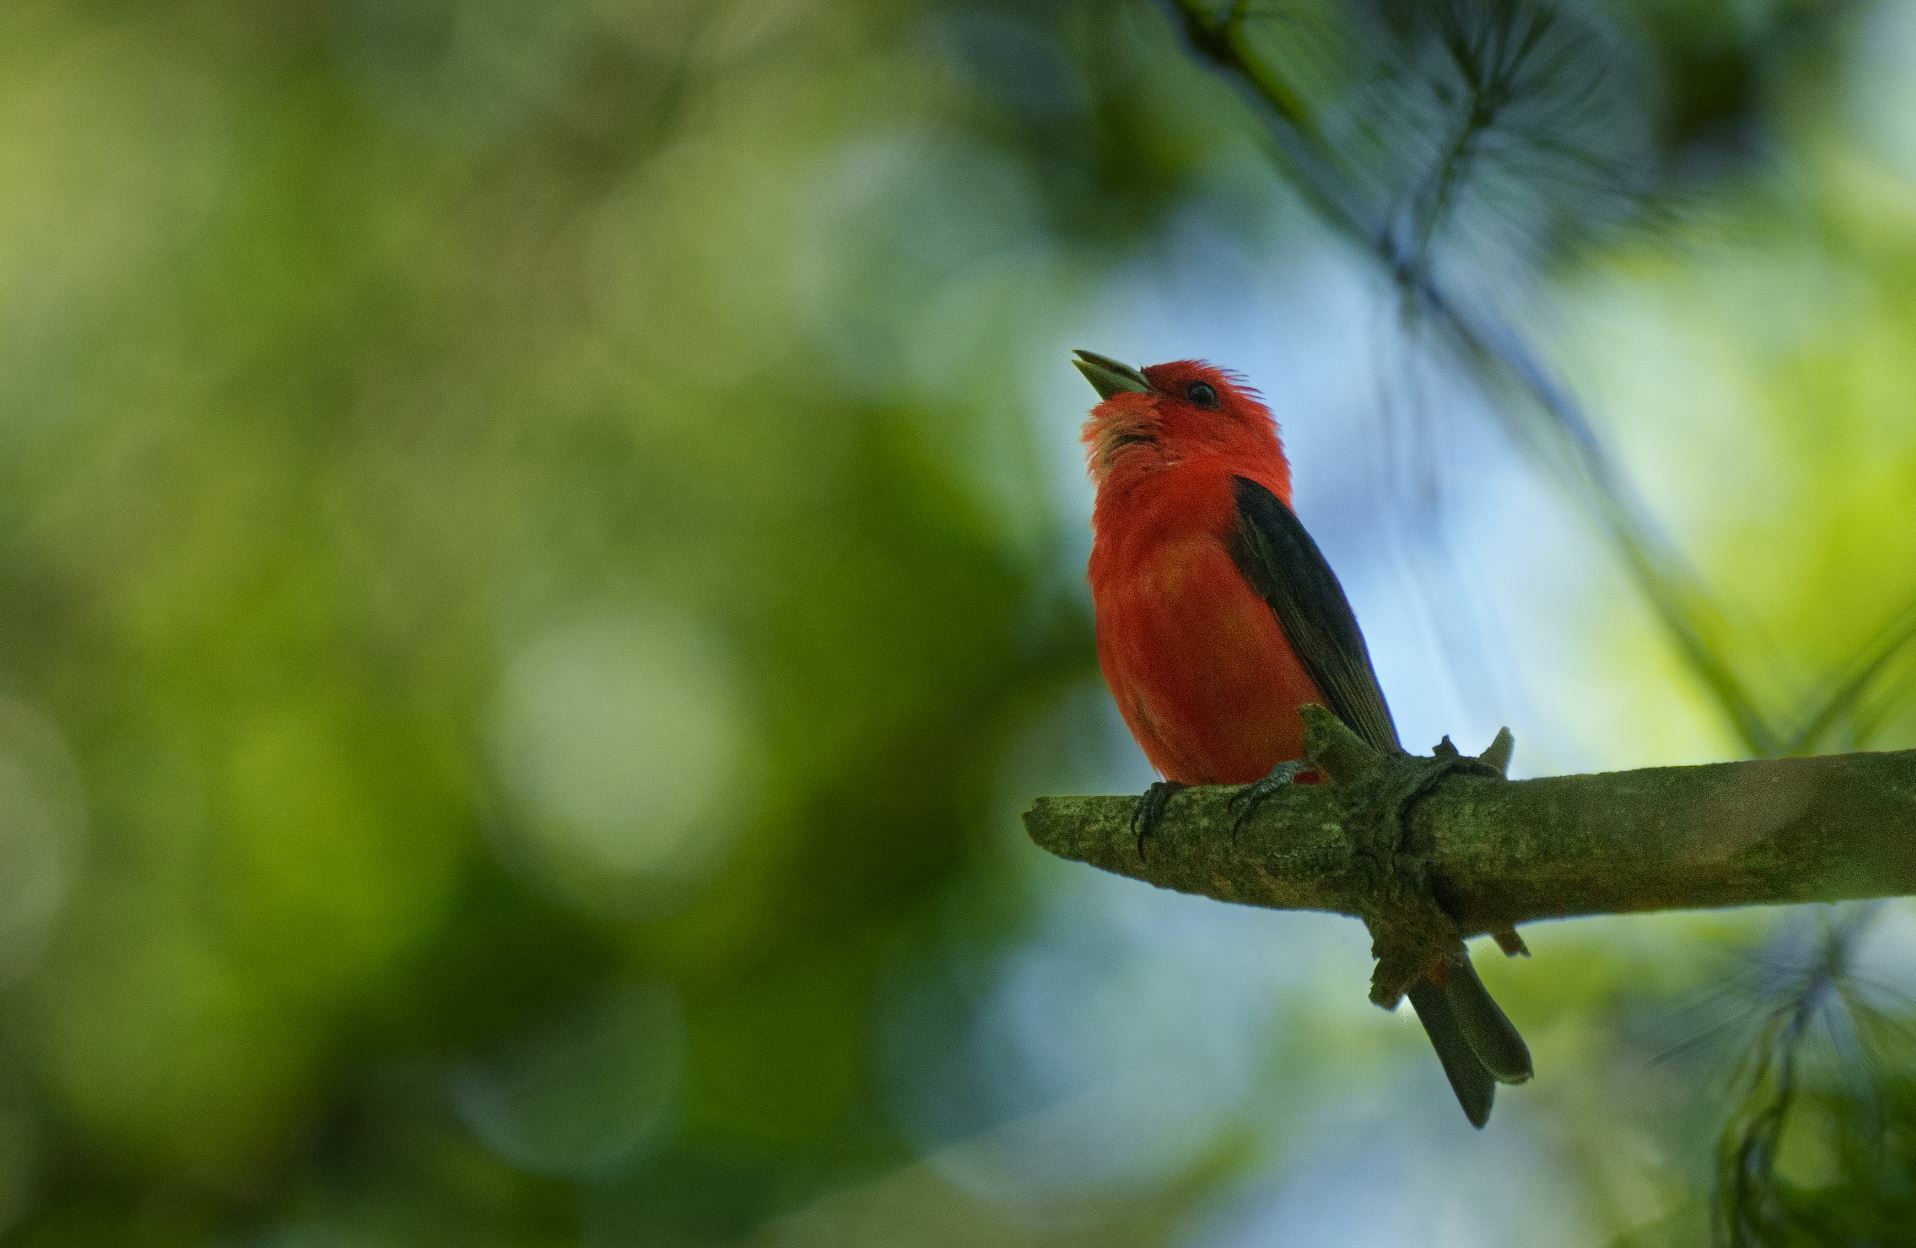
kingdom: Animalia
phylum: Chordata
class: Aves
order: Passeriformes
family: Cardinalidae
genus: Piranga
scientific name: Piranga olivacea
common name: Scarlet tanager
